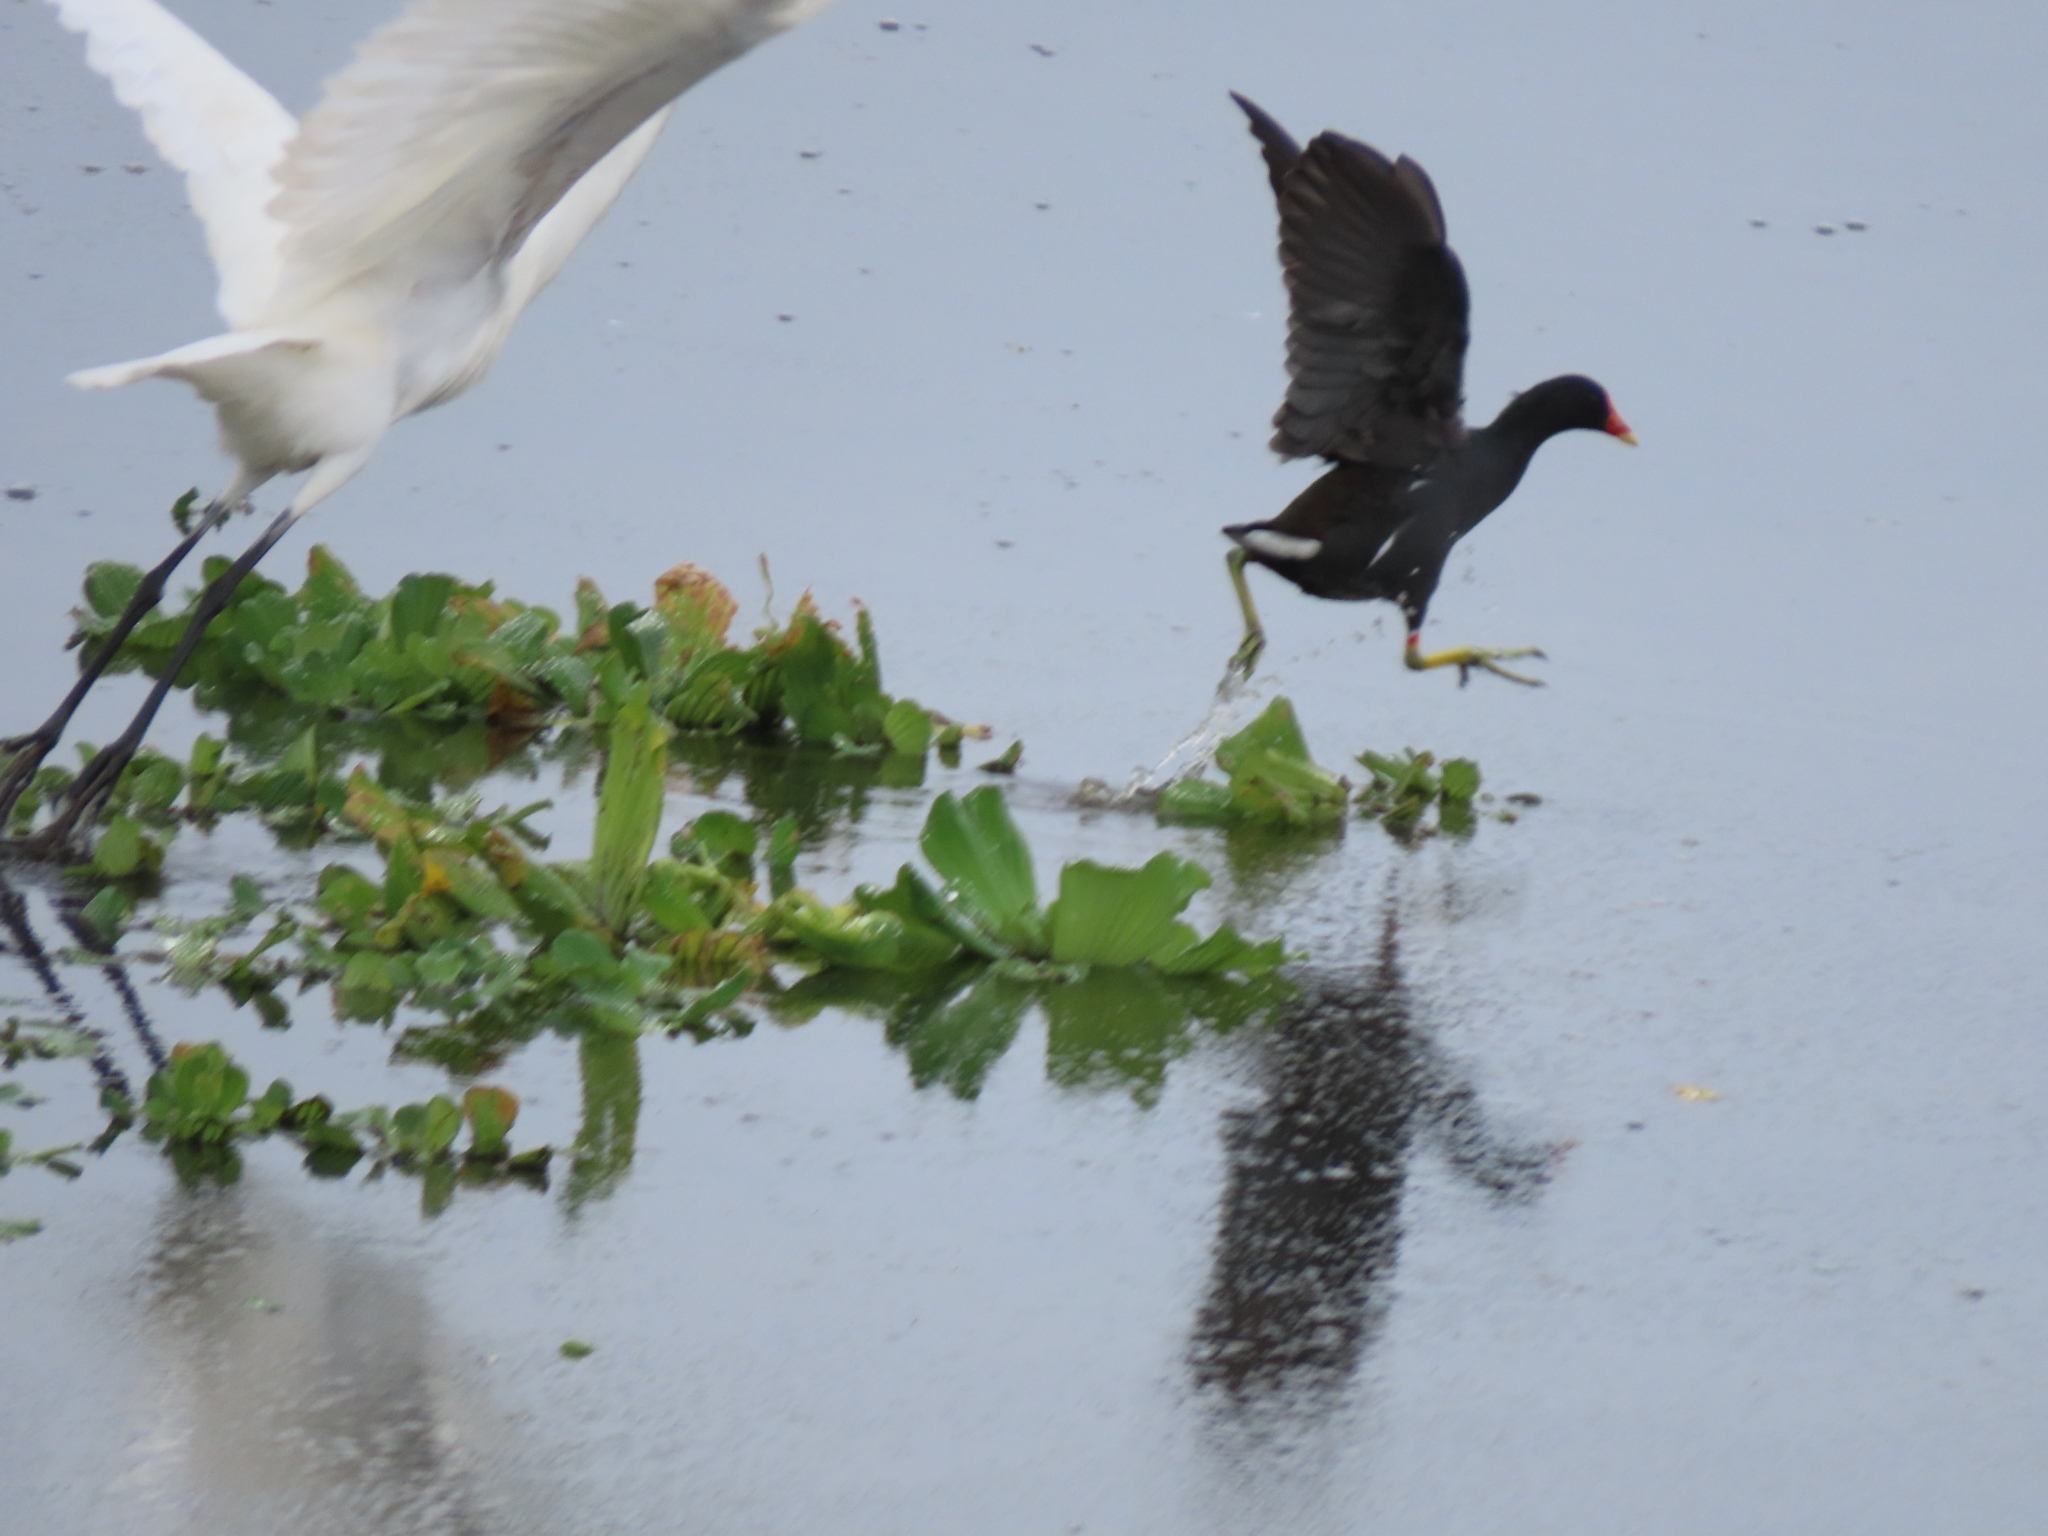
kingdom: Animalia
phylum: Chordata
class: Aves
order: Gruiformes
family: Rallidae
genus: Gallinula
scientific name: Gallinula chloropus
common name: Common moorhen
